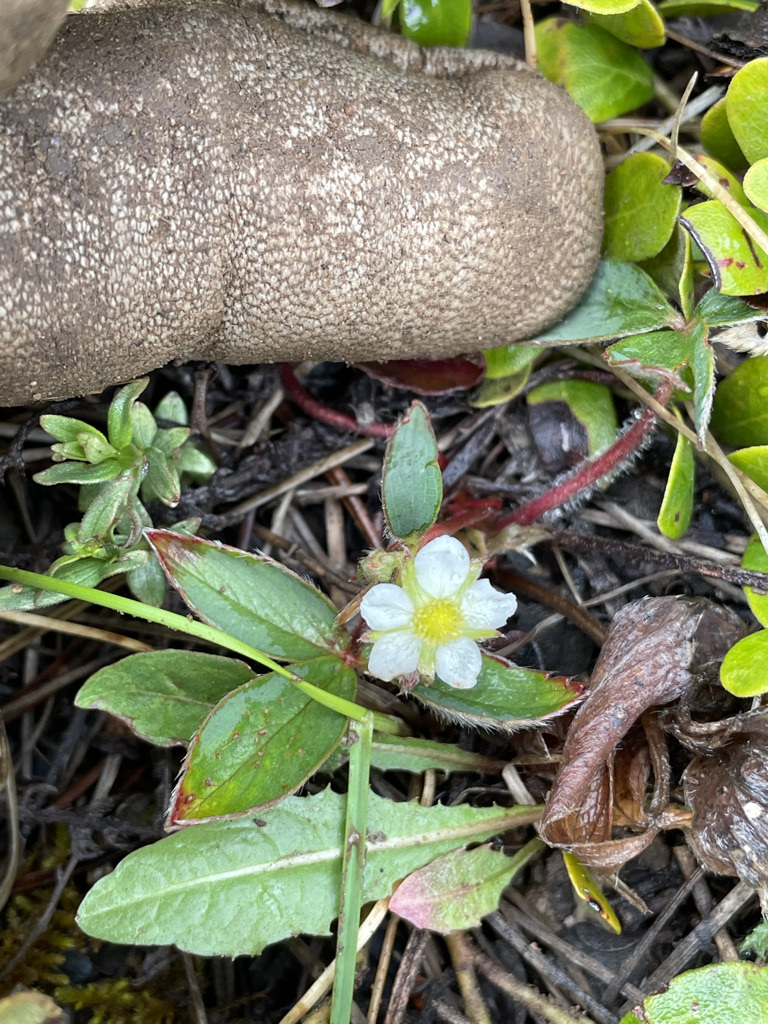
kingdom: Plantae
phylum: Tracheophyta
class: Magnoliopsida
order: Rosales
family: Rosaceae
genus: Fragaria
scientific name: Fragaria virginiana
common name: Thickleaved wild strawberry
